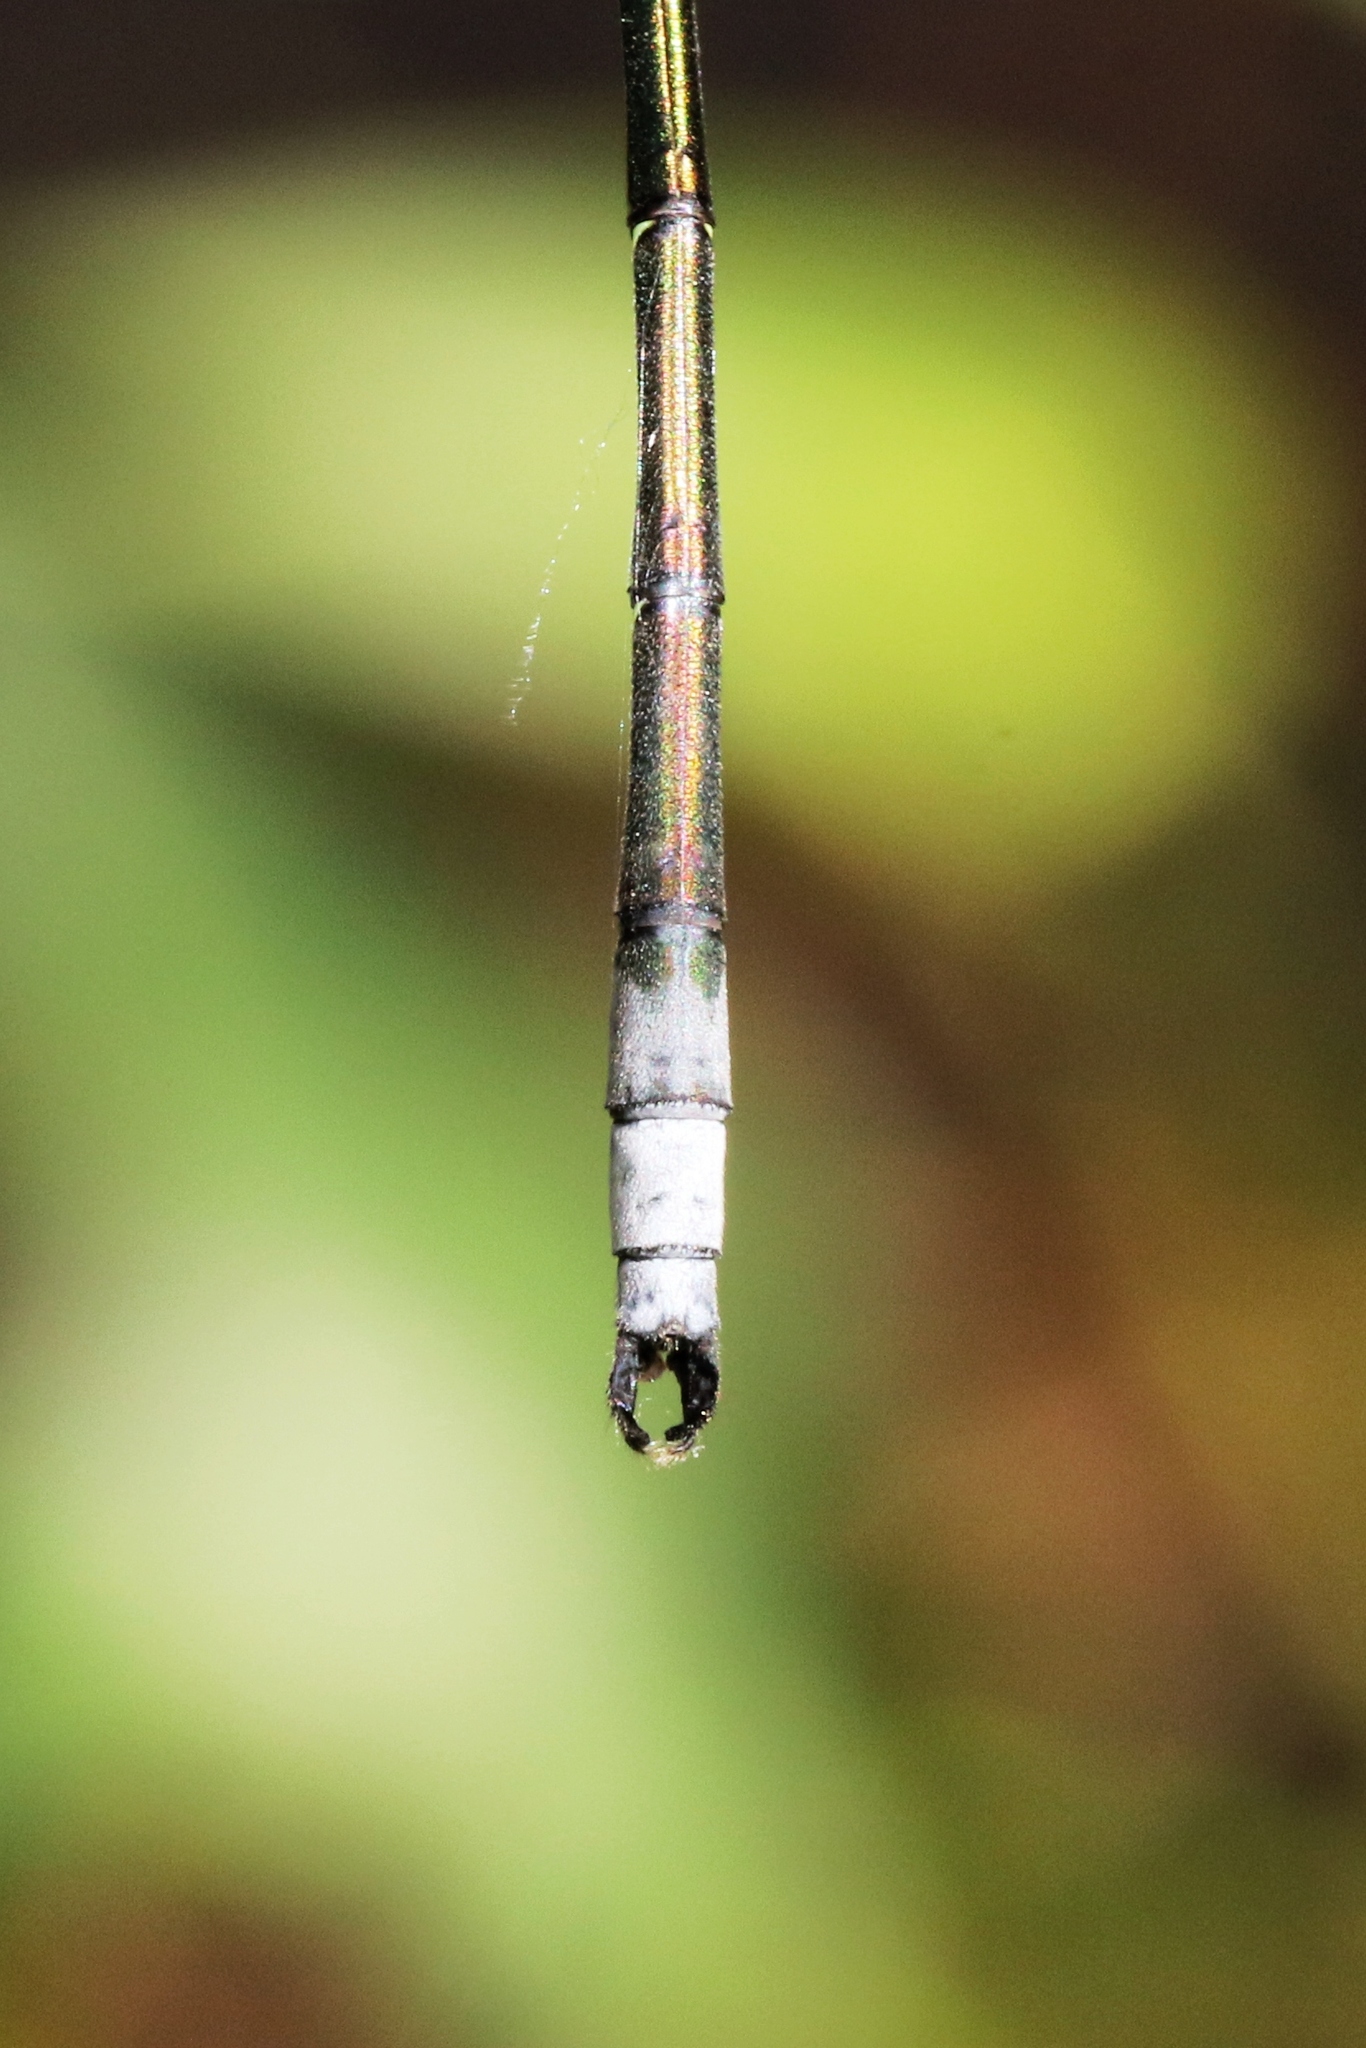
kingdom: Animalia
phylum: Arthropoda
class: Insecta
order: Odonata
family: Lestidae
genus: Lestes
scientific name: Lestes inaequalis
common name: Elegant spreadwing
